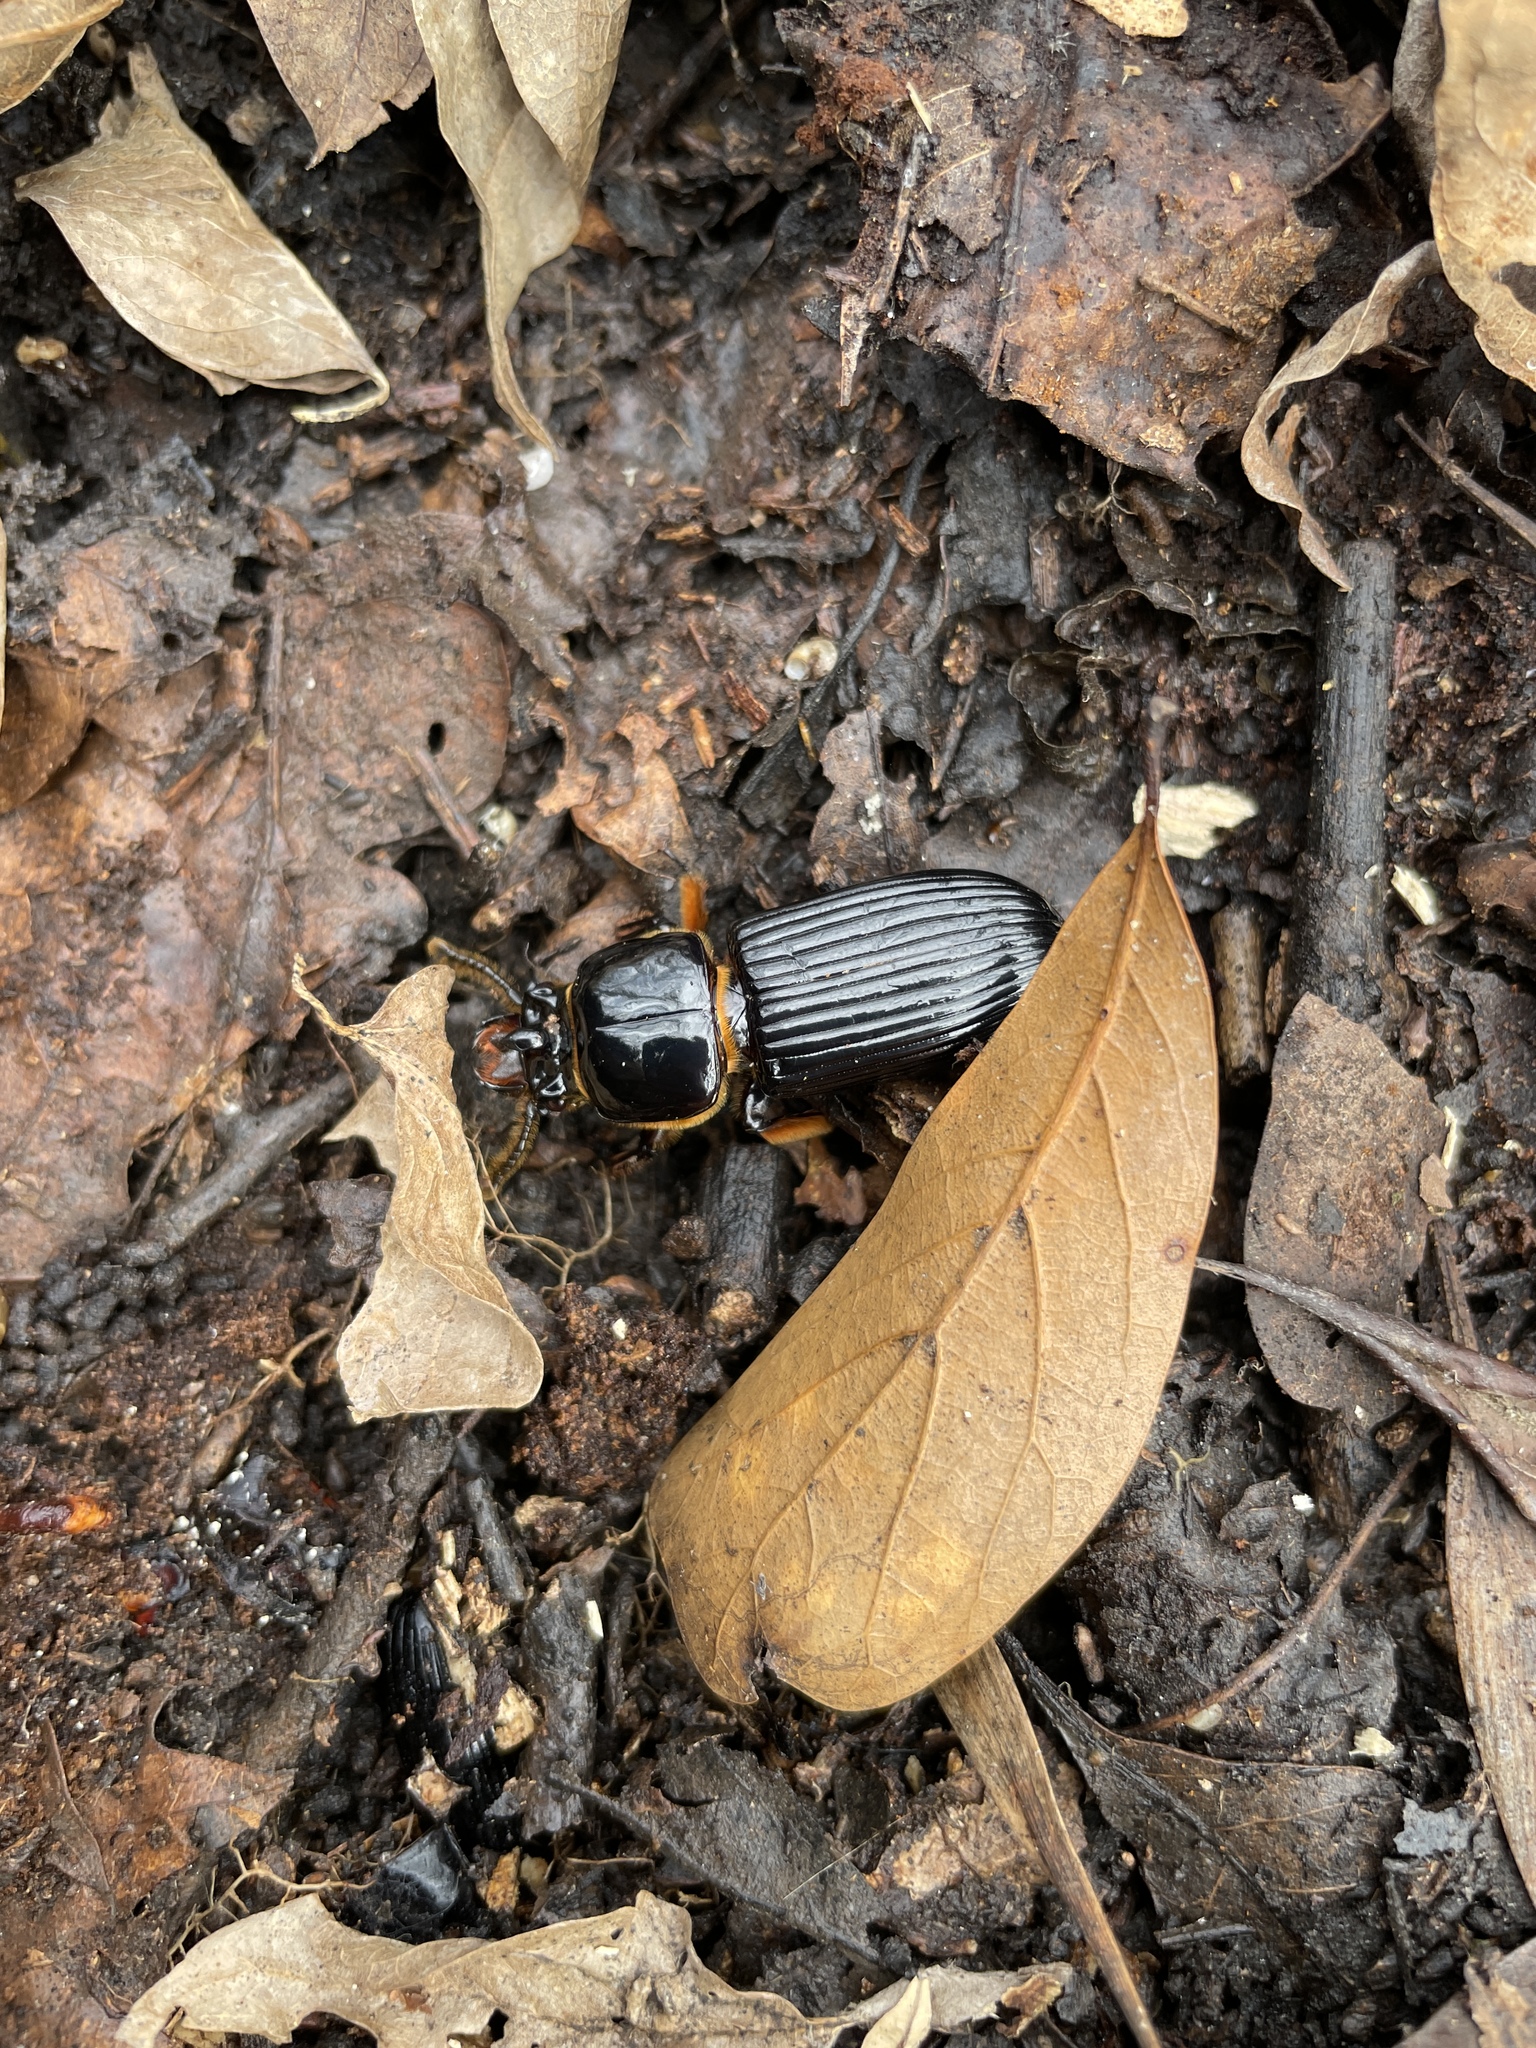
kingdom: Animalia
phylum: Arthropoda
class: Insecta
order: Coleoptera
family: Passalidae
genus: Odontotaenius
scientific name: Odontotaenius disjunctus
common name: Patent leather beetle
